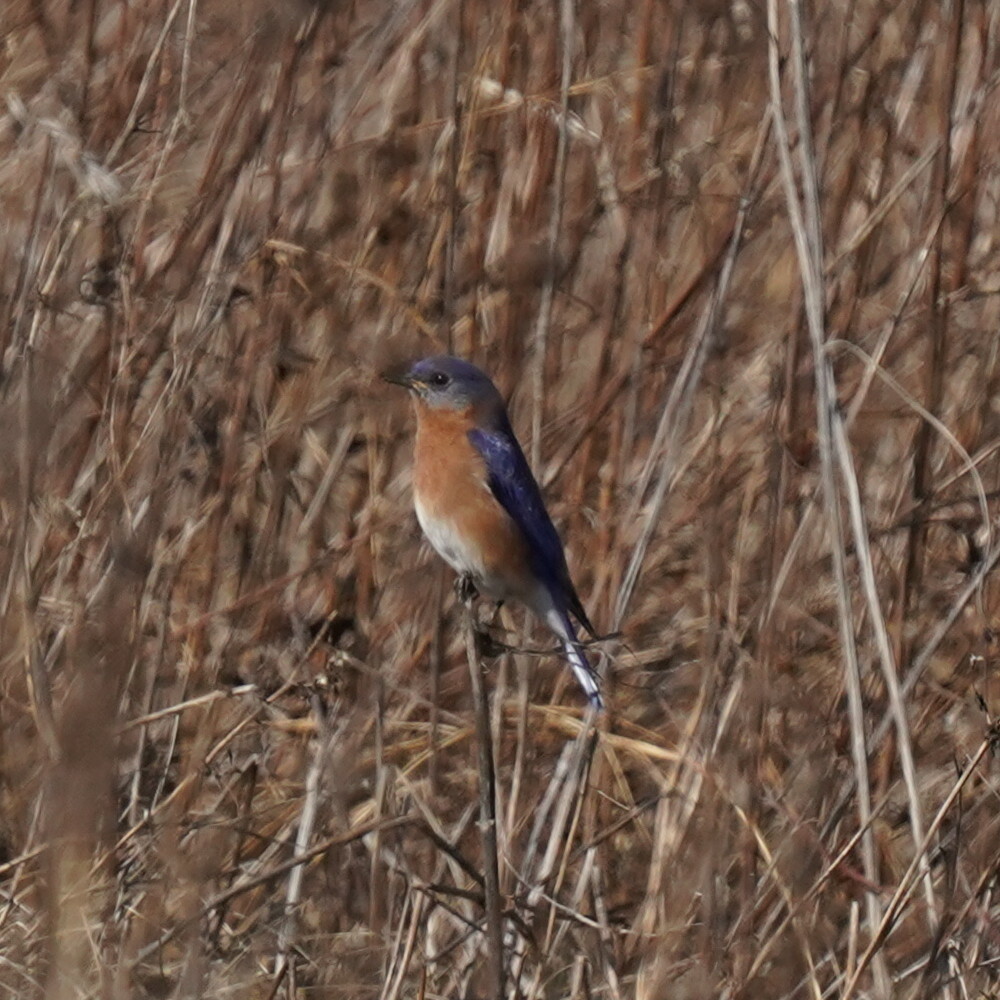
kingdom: Animalia
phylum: Chordata
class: Aves
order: Passeriformes
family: Turdidae
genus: Sialia
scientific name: Sialia sialis
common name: Eastern bluebird
